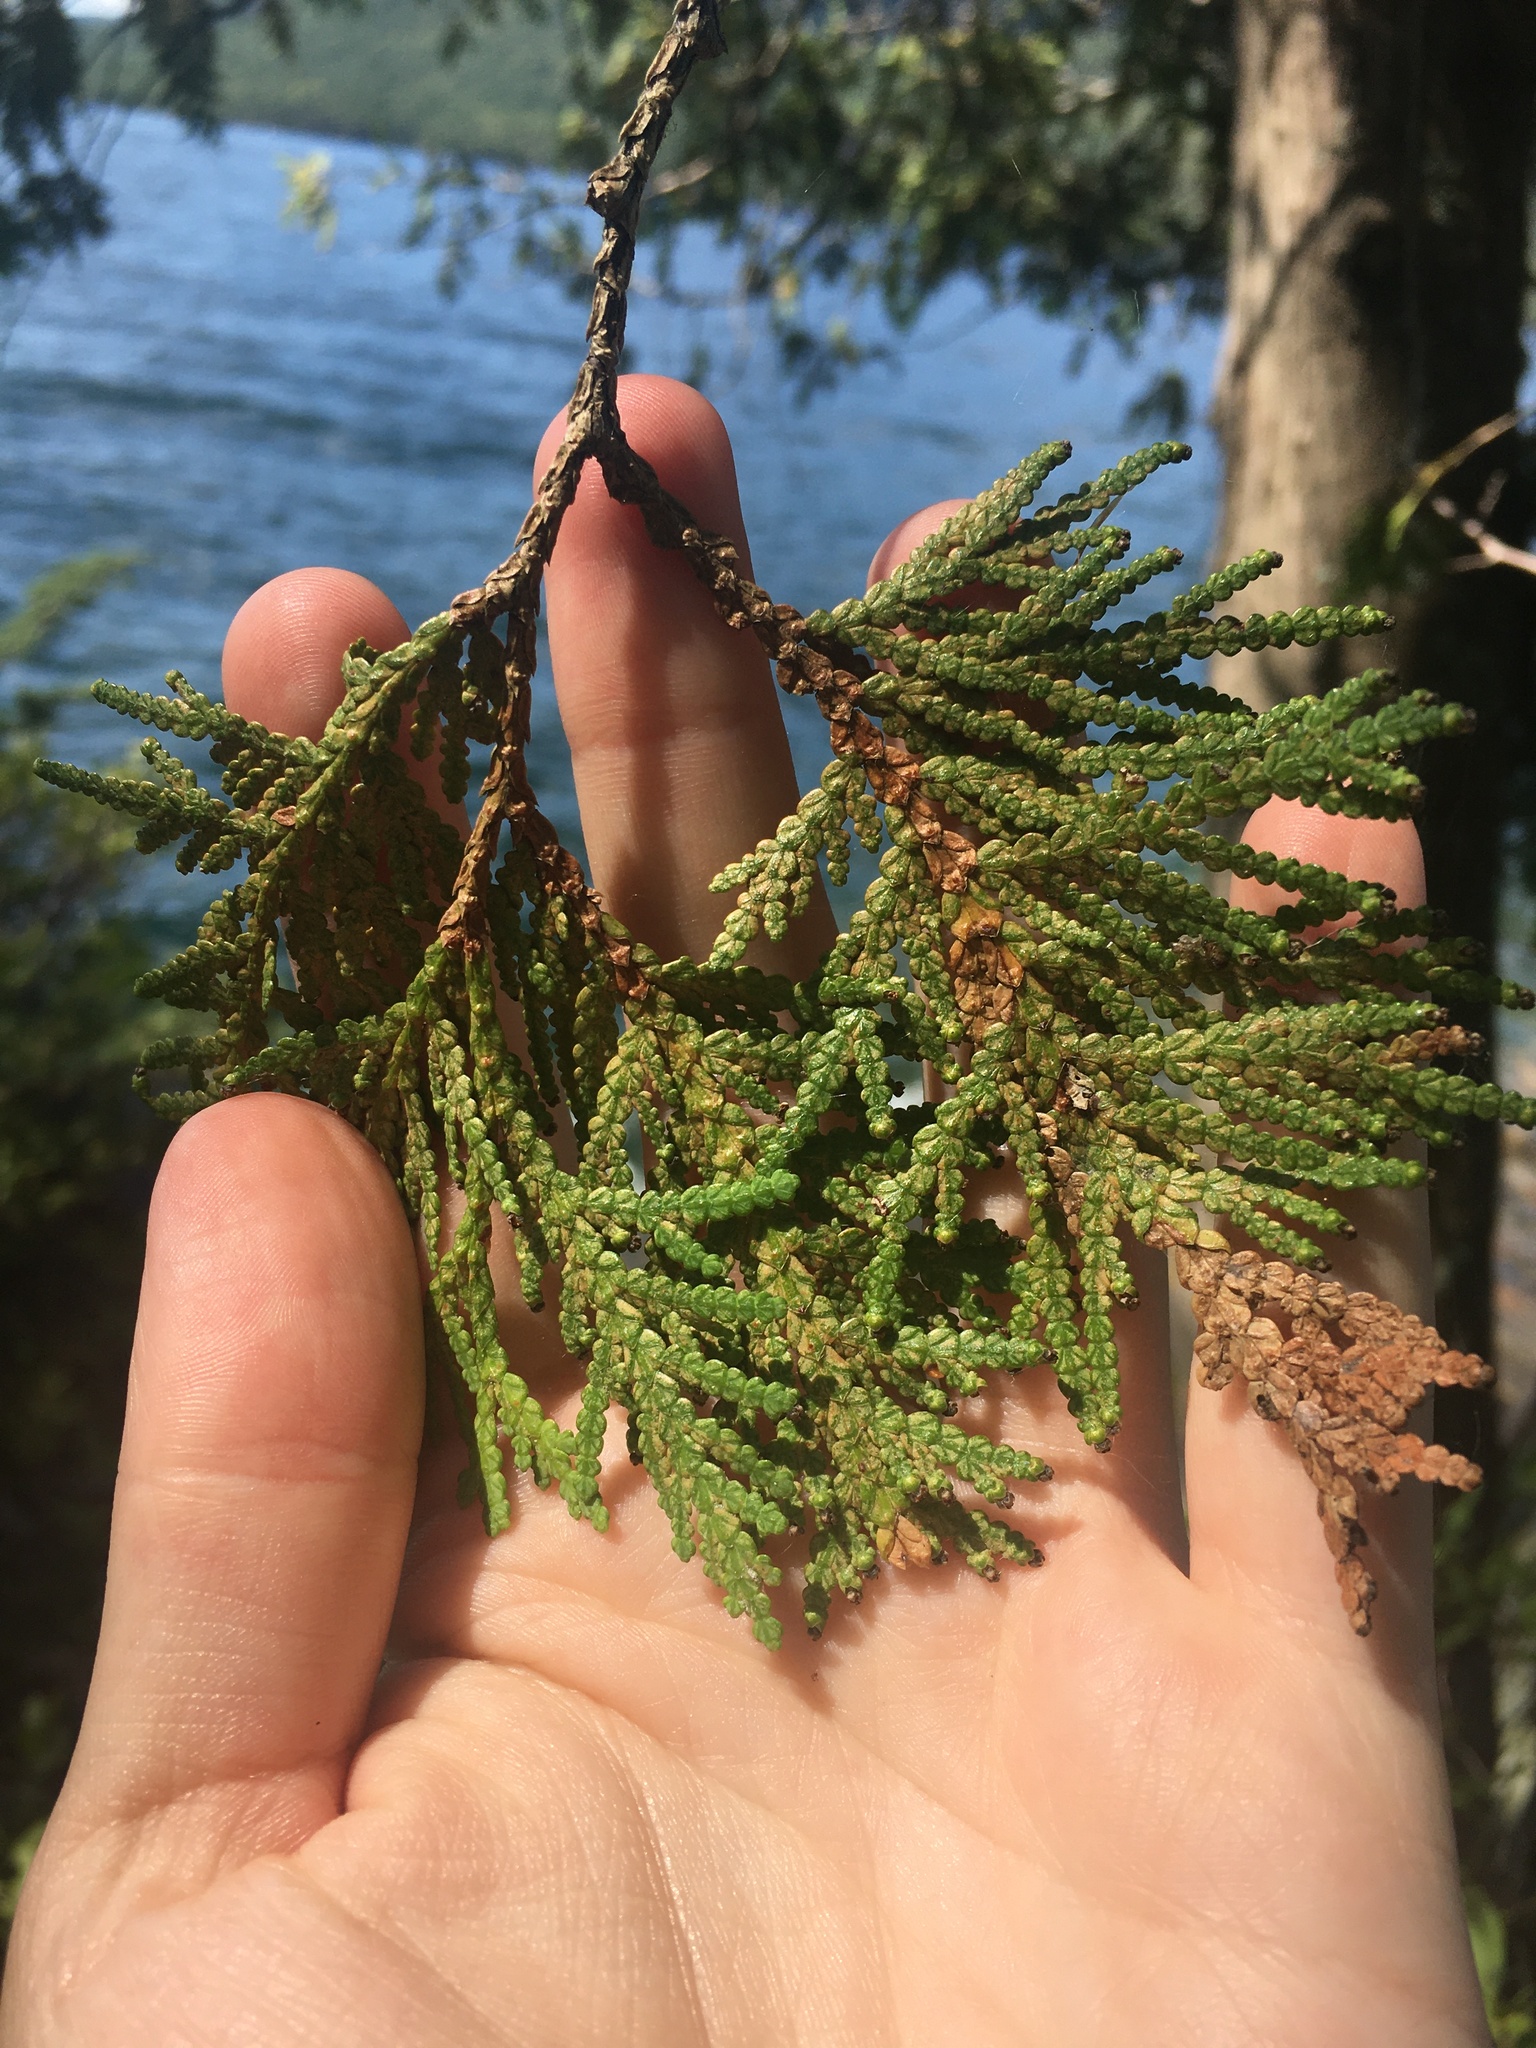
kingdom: Plantae
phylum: Tracheophyta
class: Pinopsida
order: Pinales
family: Cupressaceae
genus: Thuja
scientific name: Thuja occidentalis
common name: Northern white-cedar
